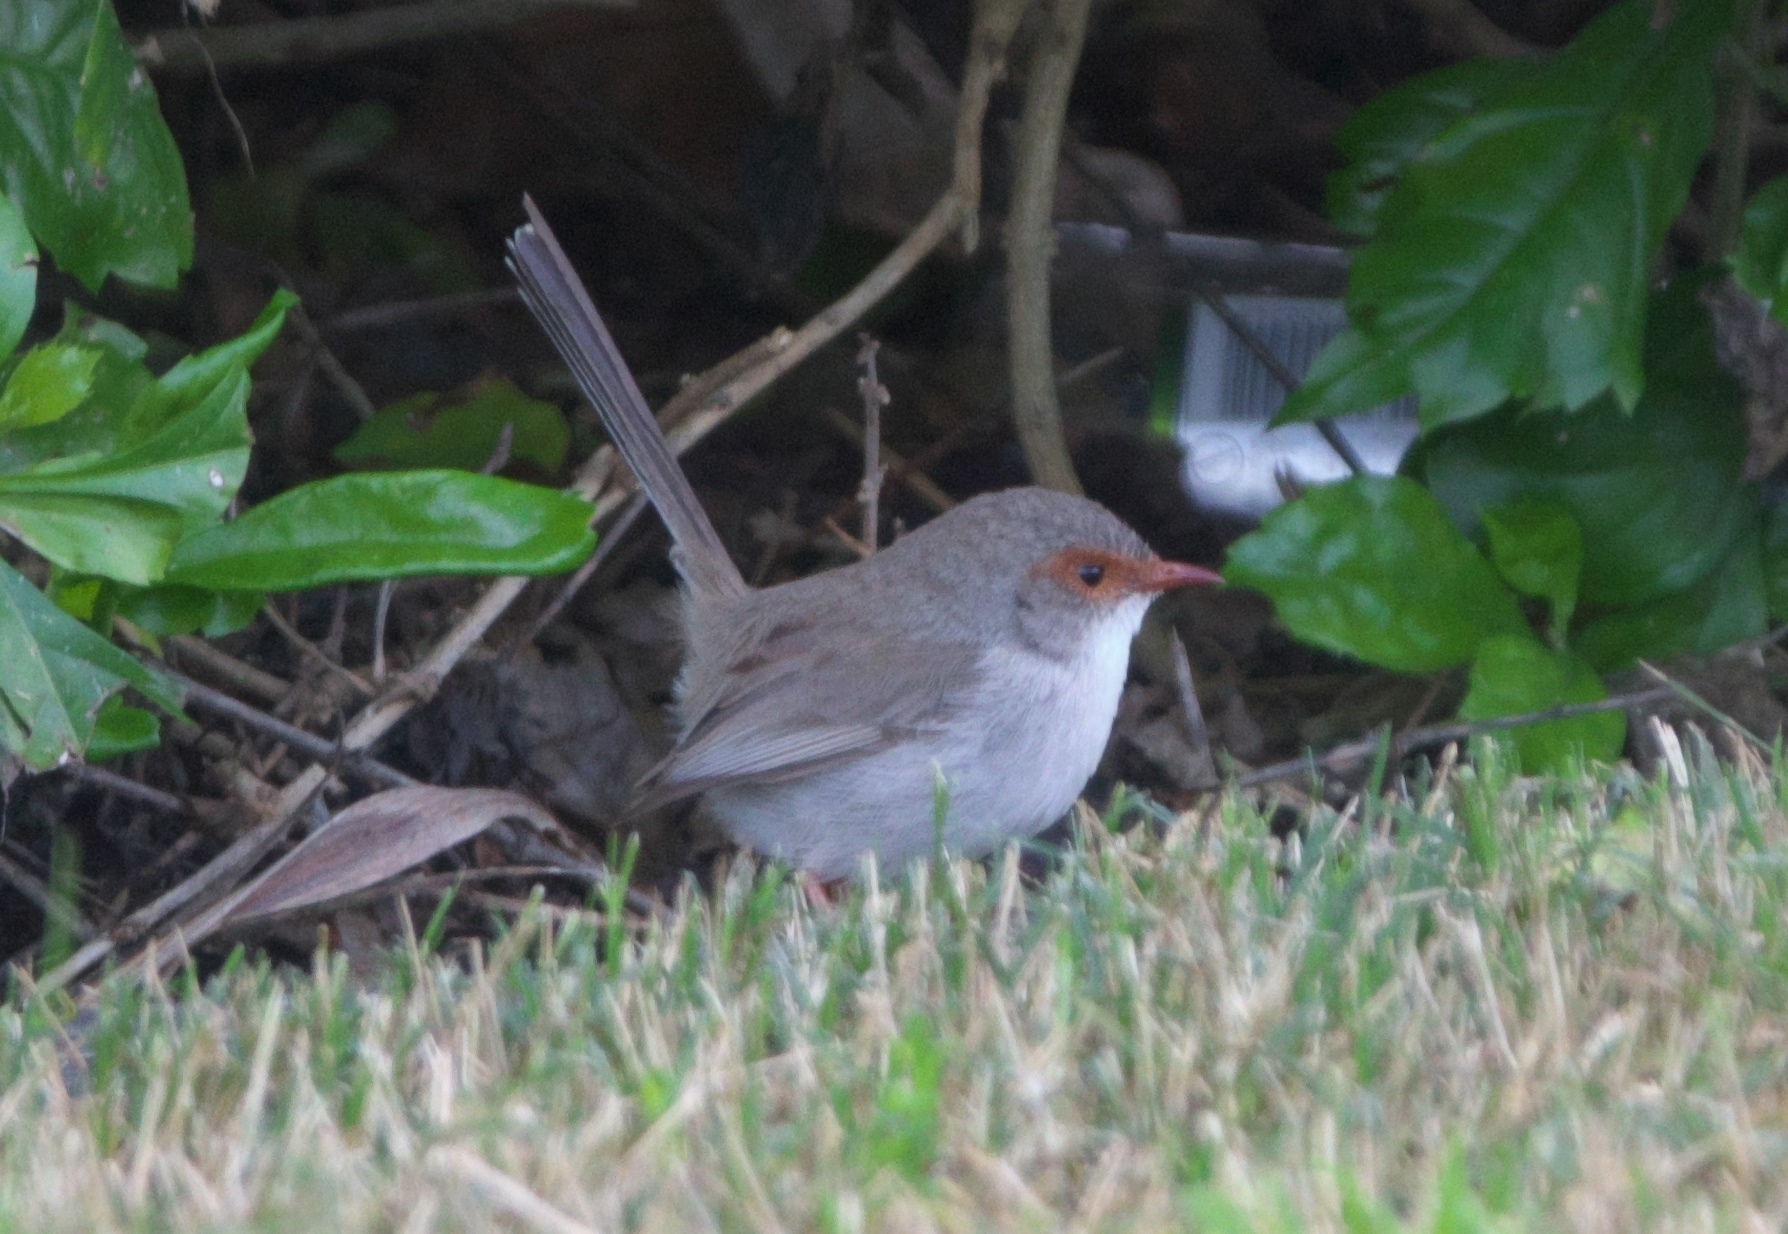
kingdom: Animalia
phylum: Chordata
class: Aves
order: Passeriformes
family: Maluridae
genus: Malurus
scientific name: Malurus cyaneus
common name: Superb fairywren
